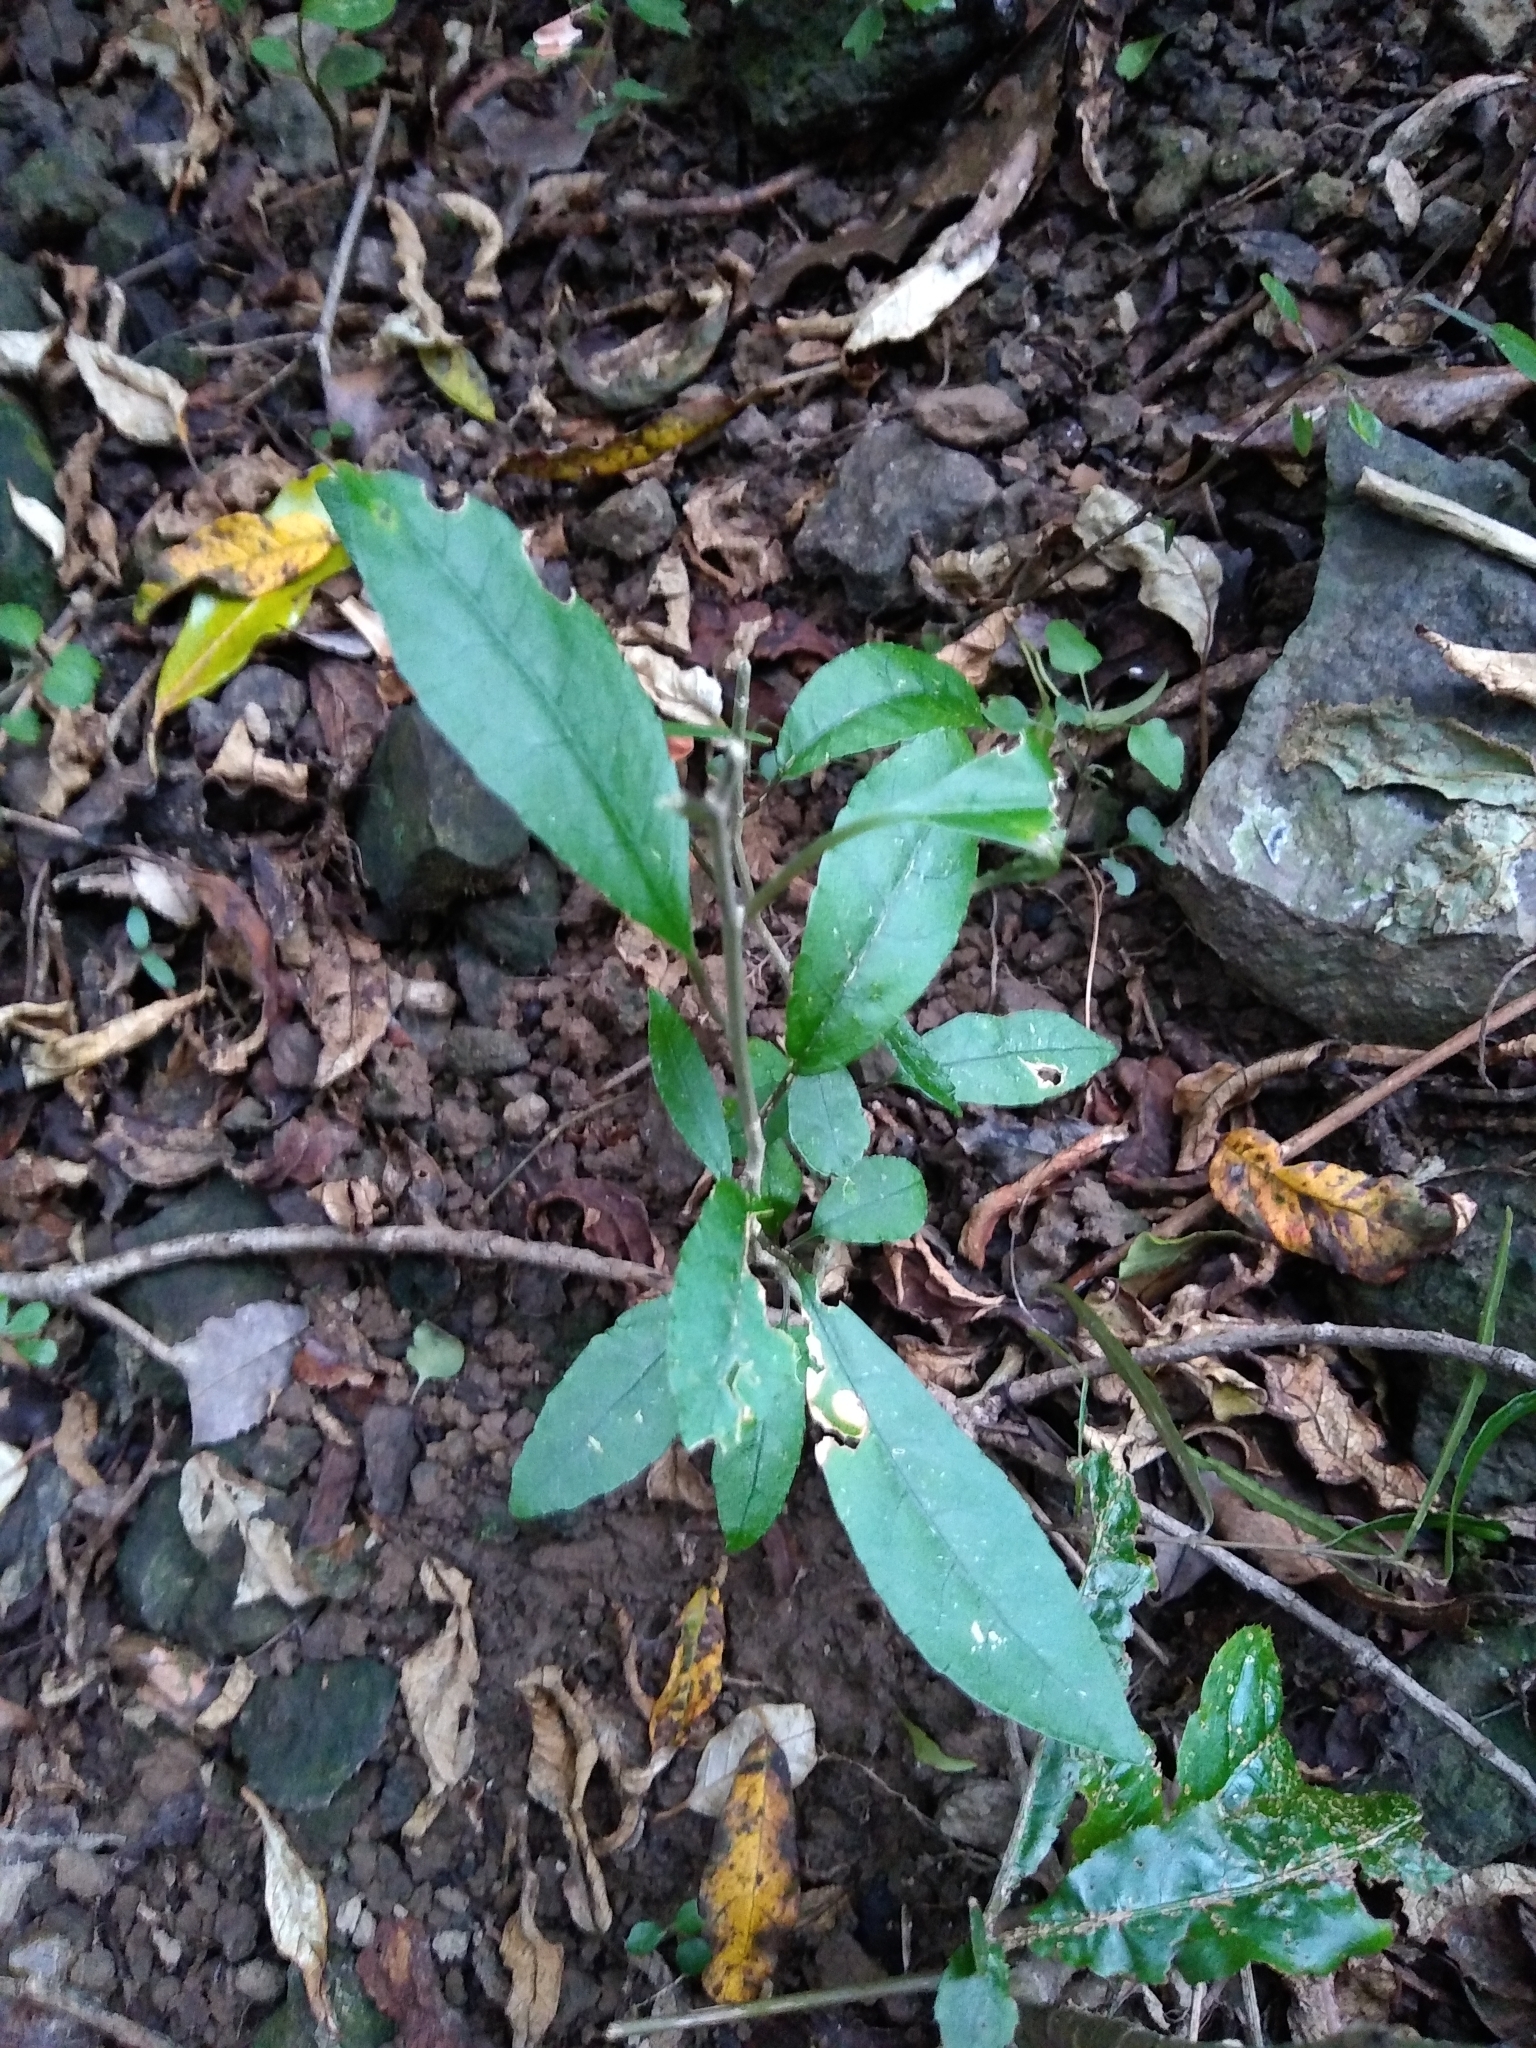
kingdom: Plantae
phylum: Tracheophyta
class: Magnoliopsida
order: Malpighiales
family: Violaceae
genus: Melicytus
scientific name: Melicytus ramiflorus
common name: Mahoe
